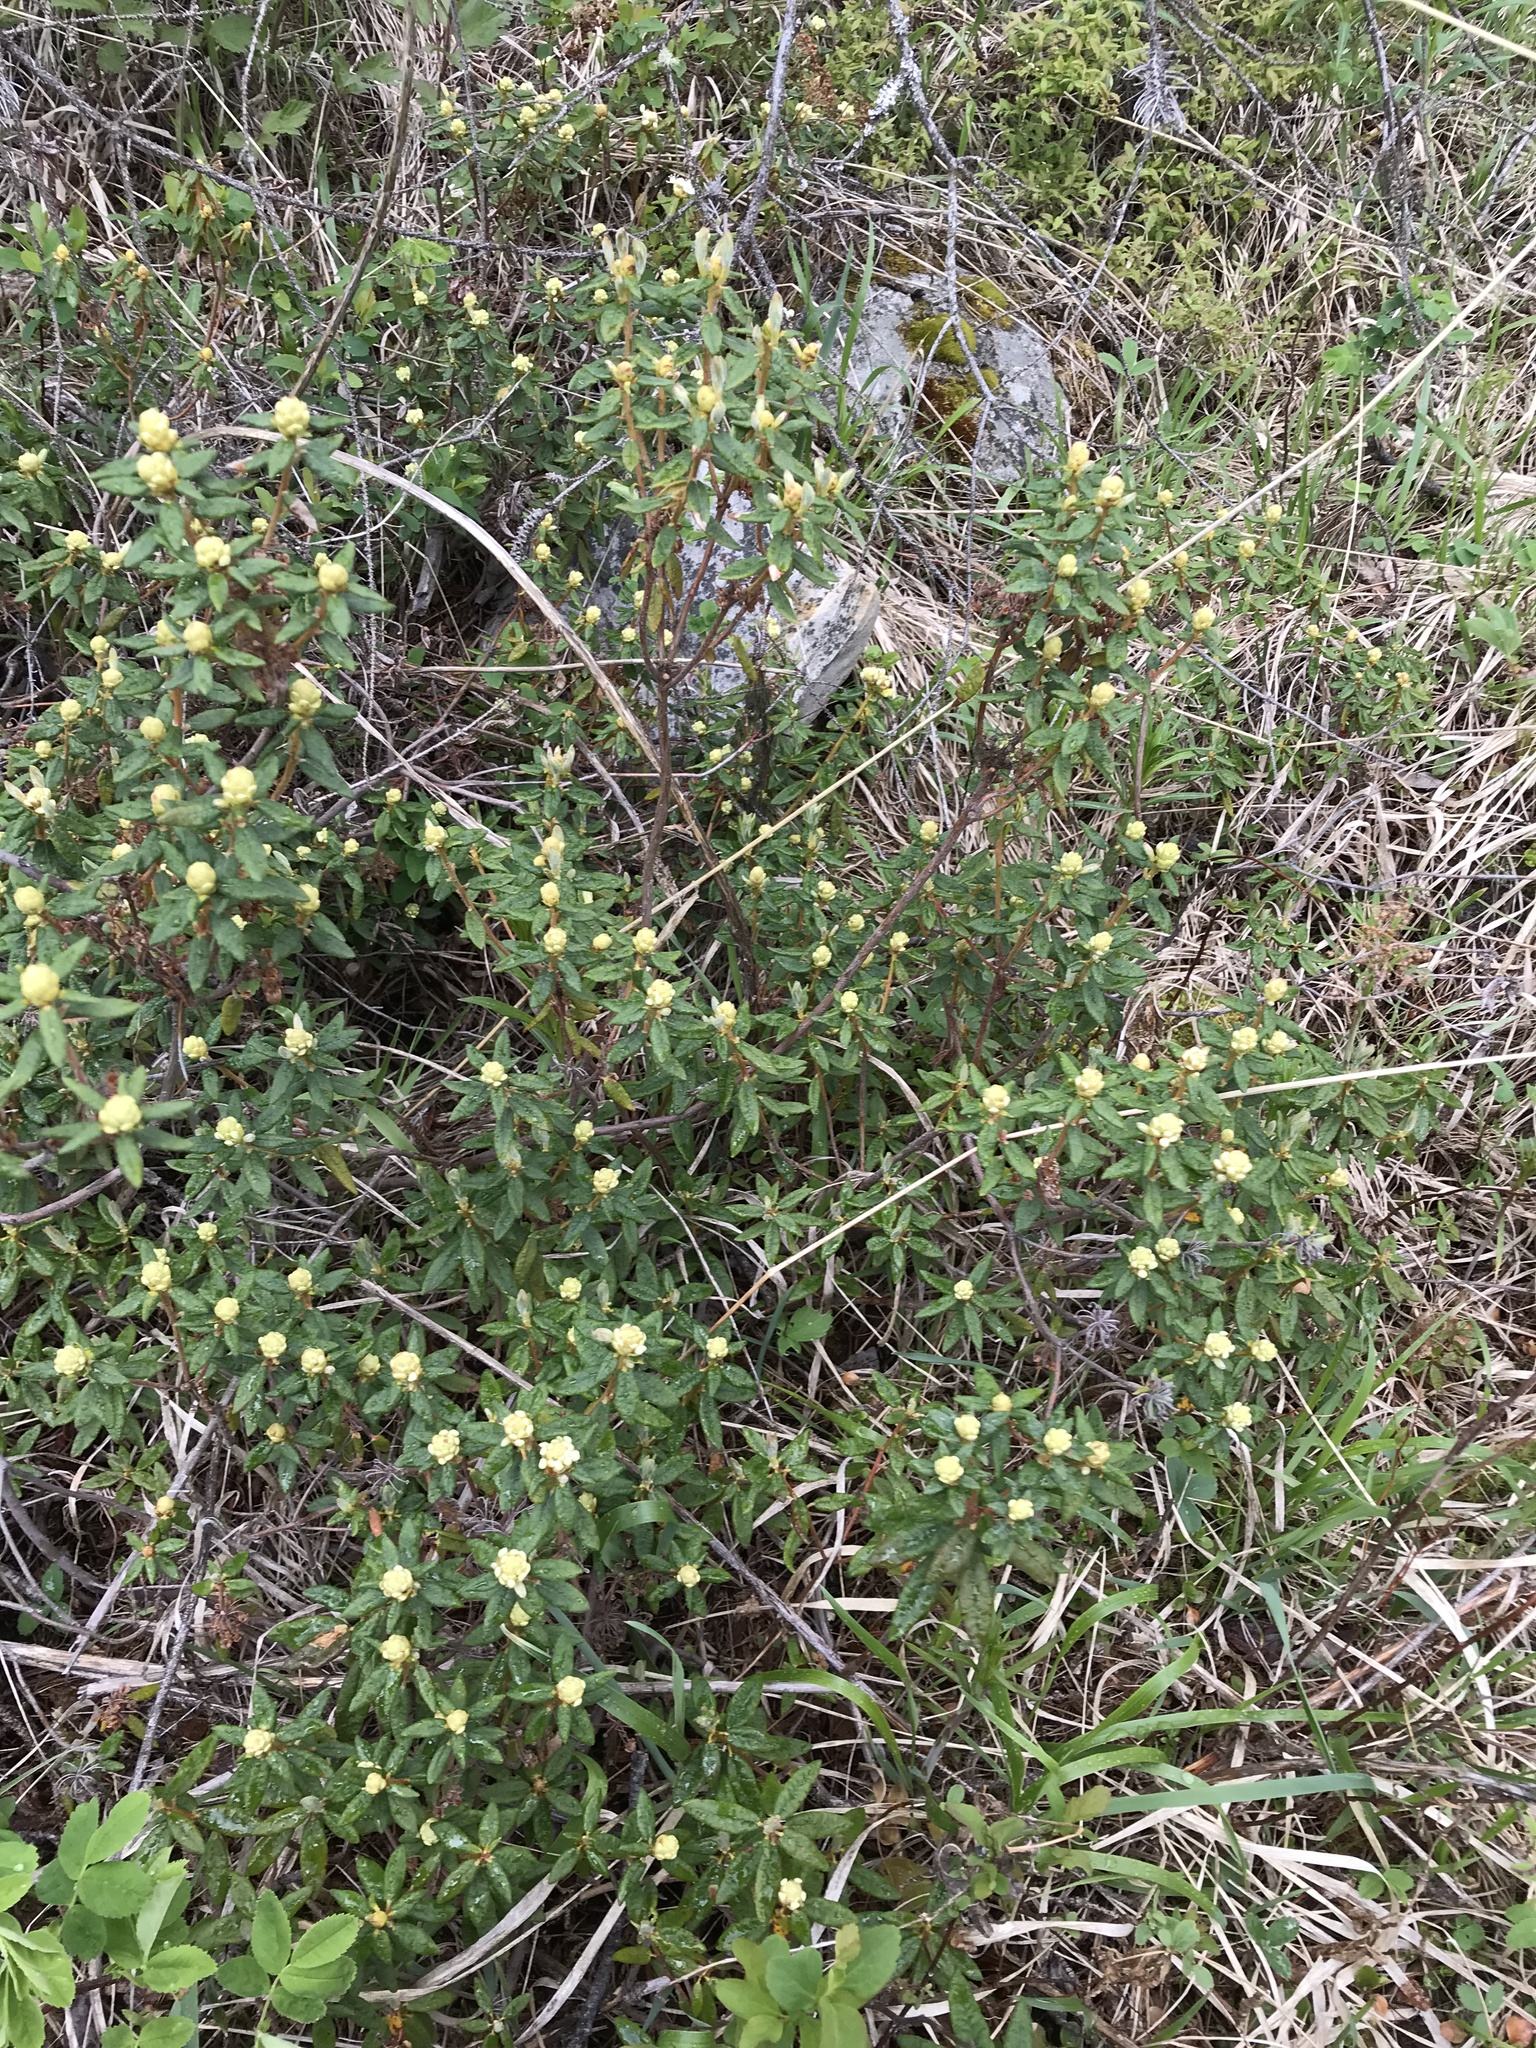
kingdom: Plantae
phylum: Tracheophyta
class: Magnoliopsida
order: Ericales
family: Ericaceae
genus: Rhododendron
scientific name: Rhododendron groenlandicum
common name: Bog labrador tea
